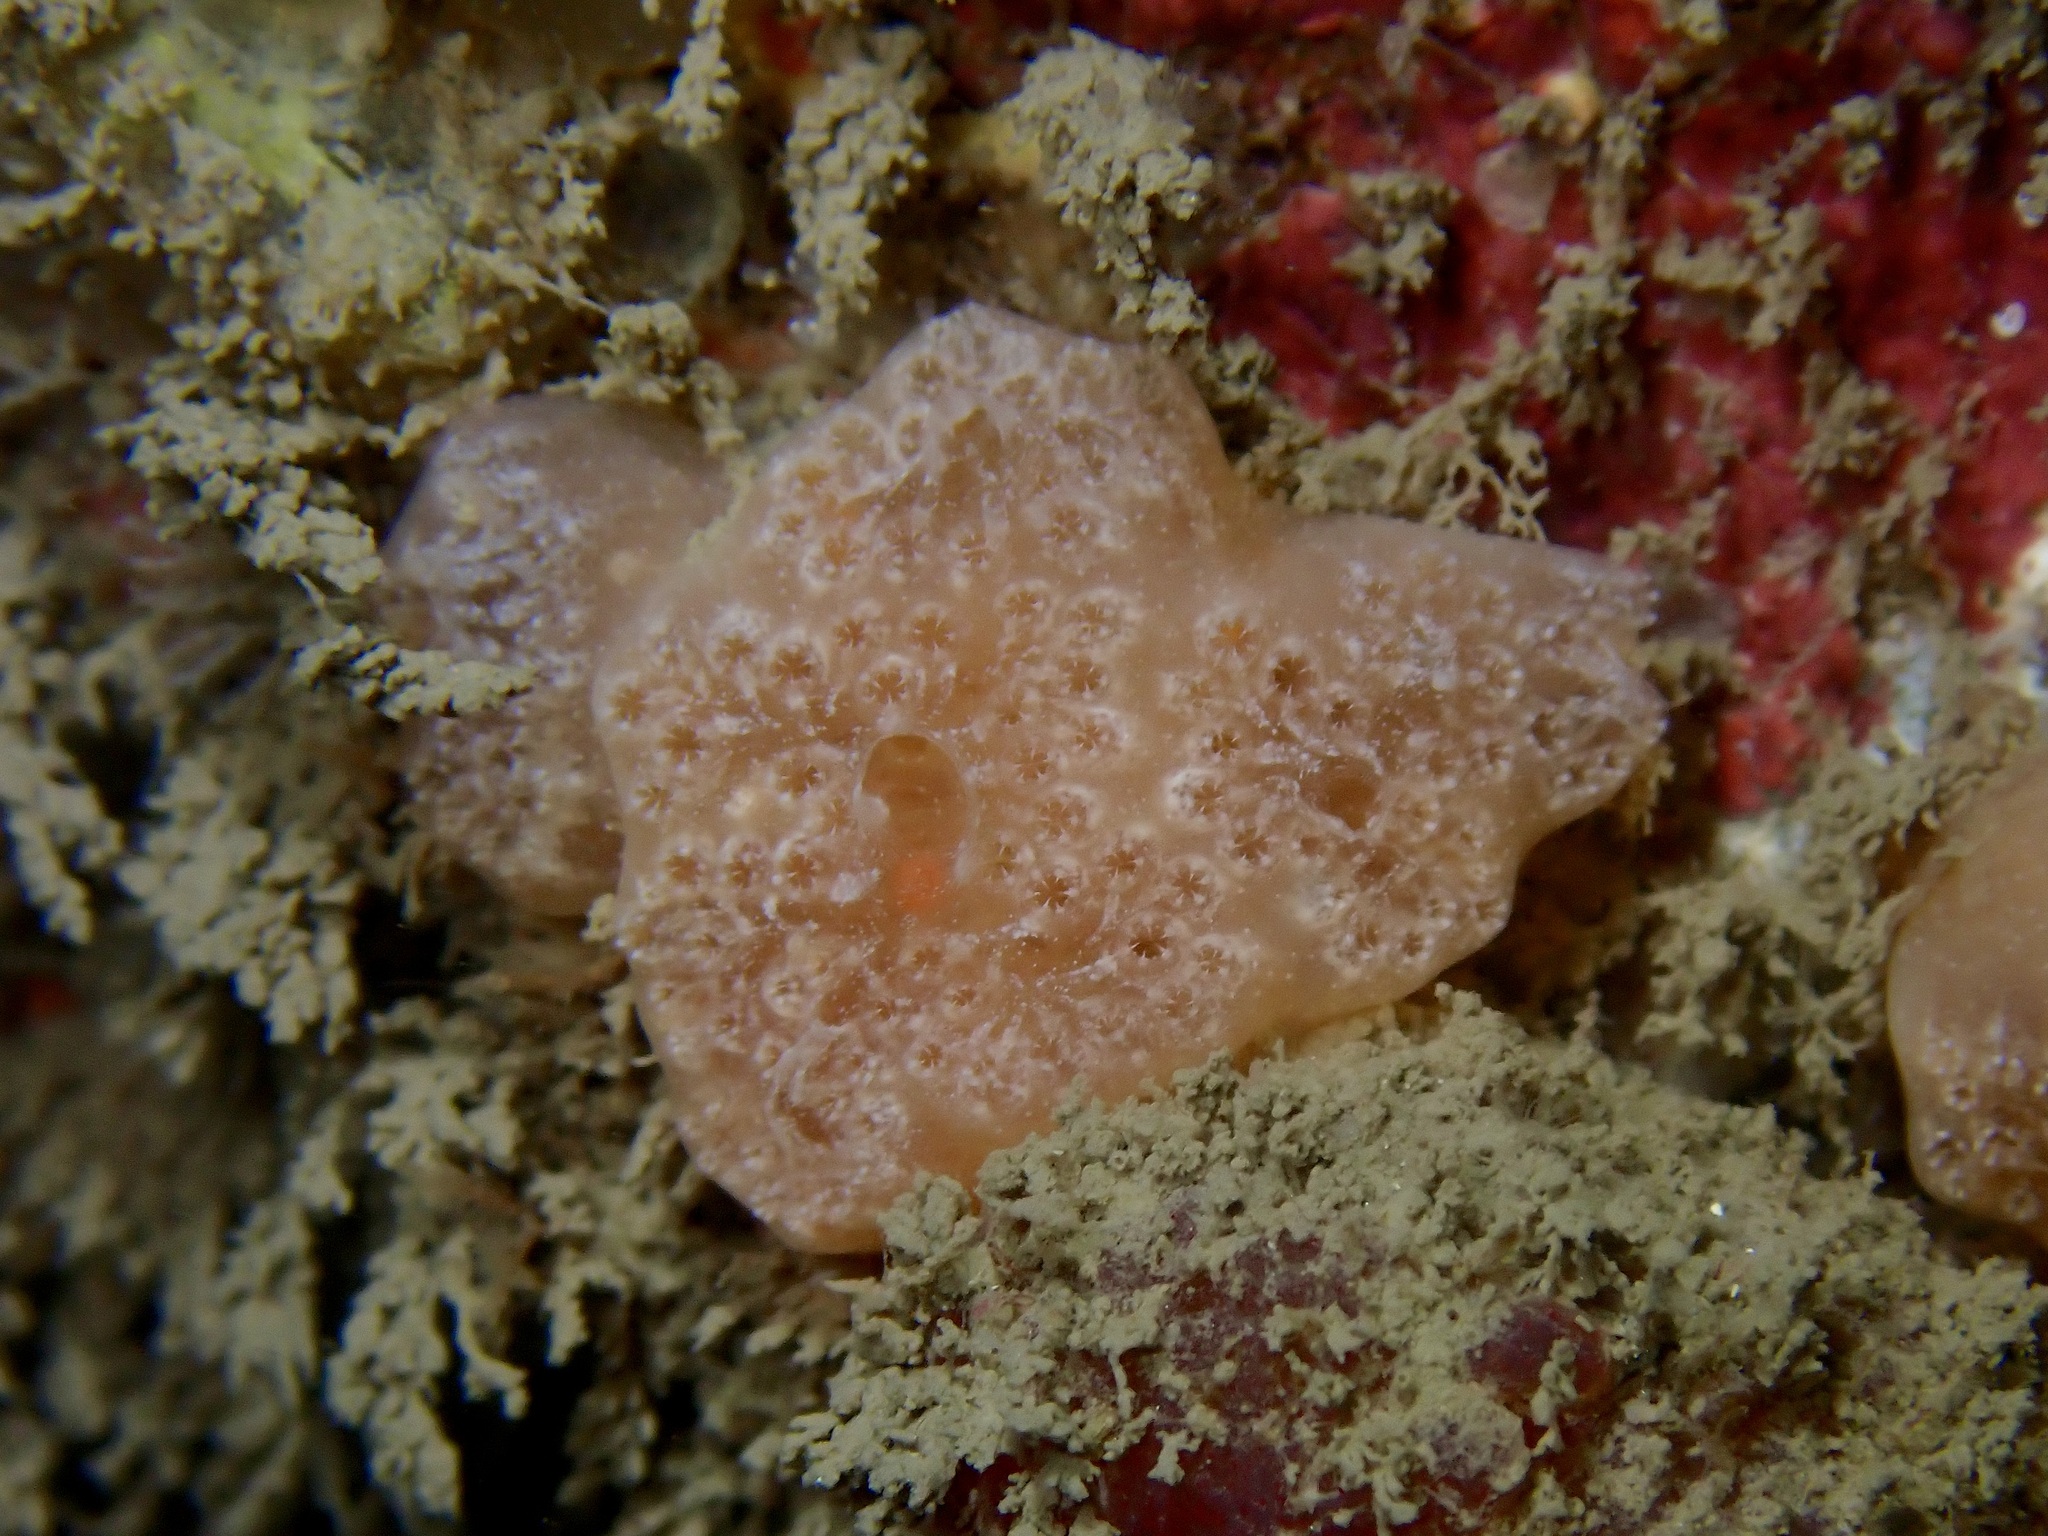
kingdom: Animalia
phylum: Chordata
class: Ascidiacea
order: Aplousobranchia
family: Polyclinidae
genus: Aplidium
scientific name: Aplidium nordmanni
